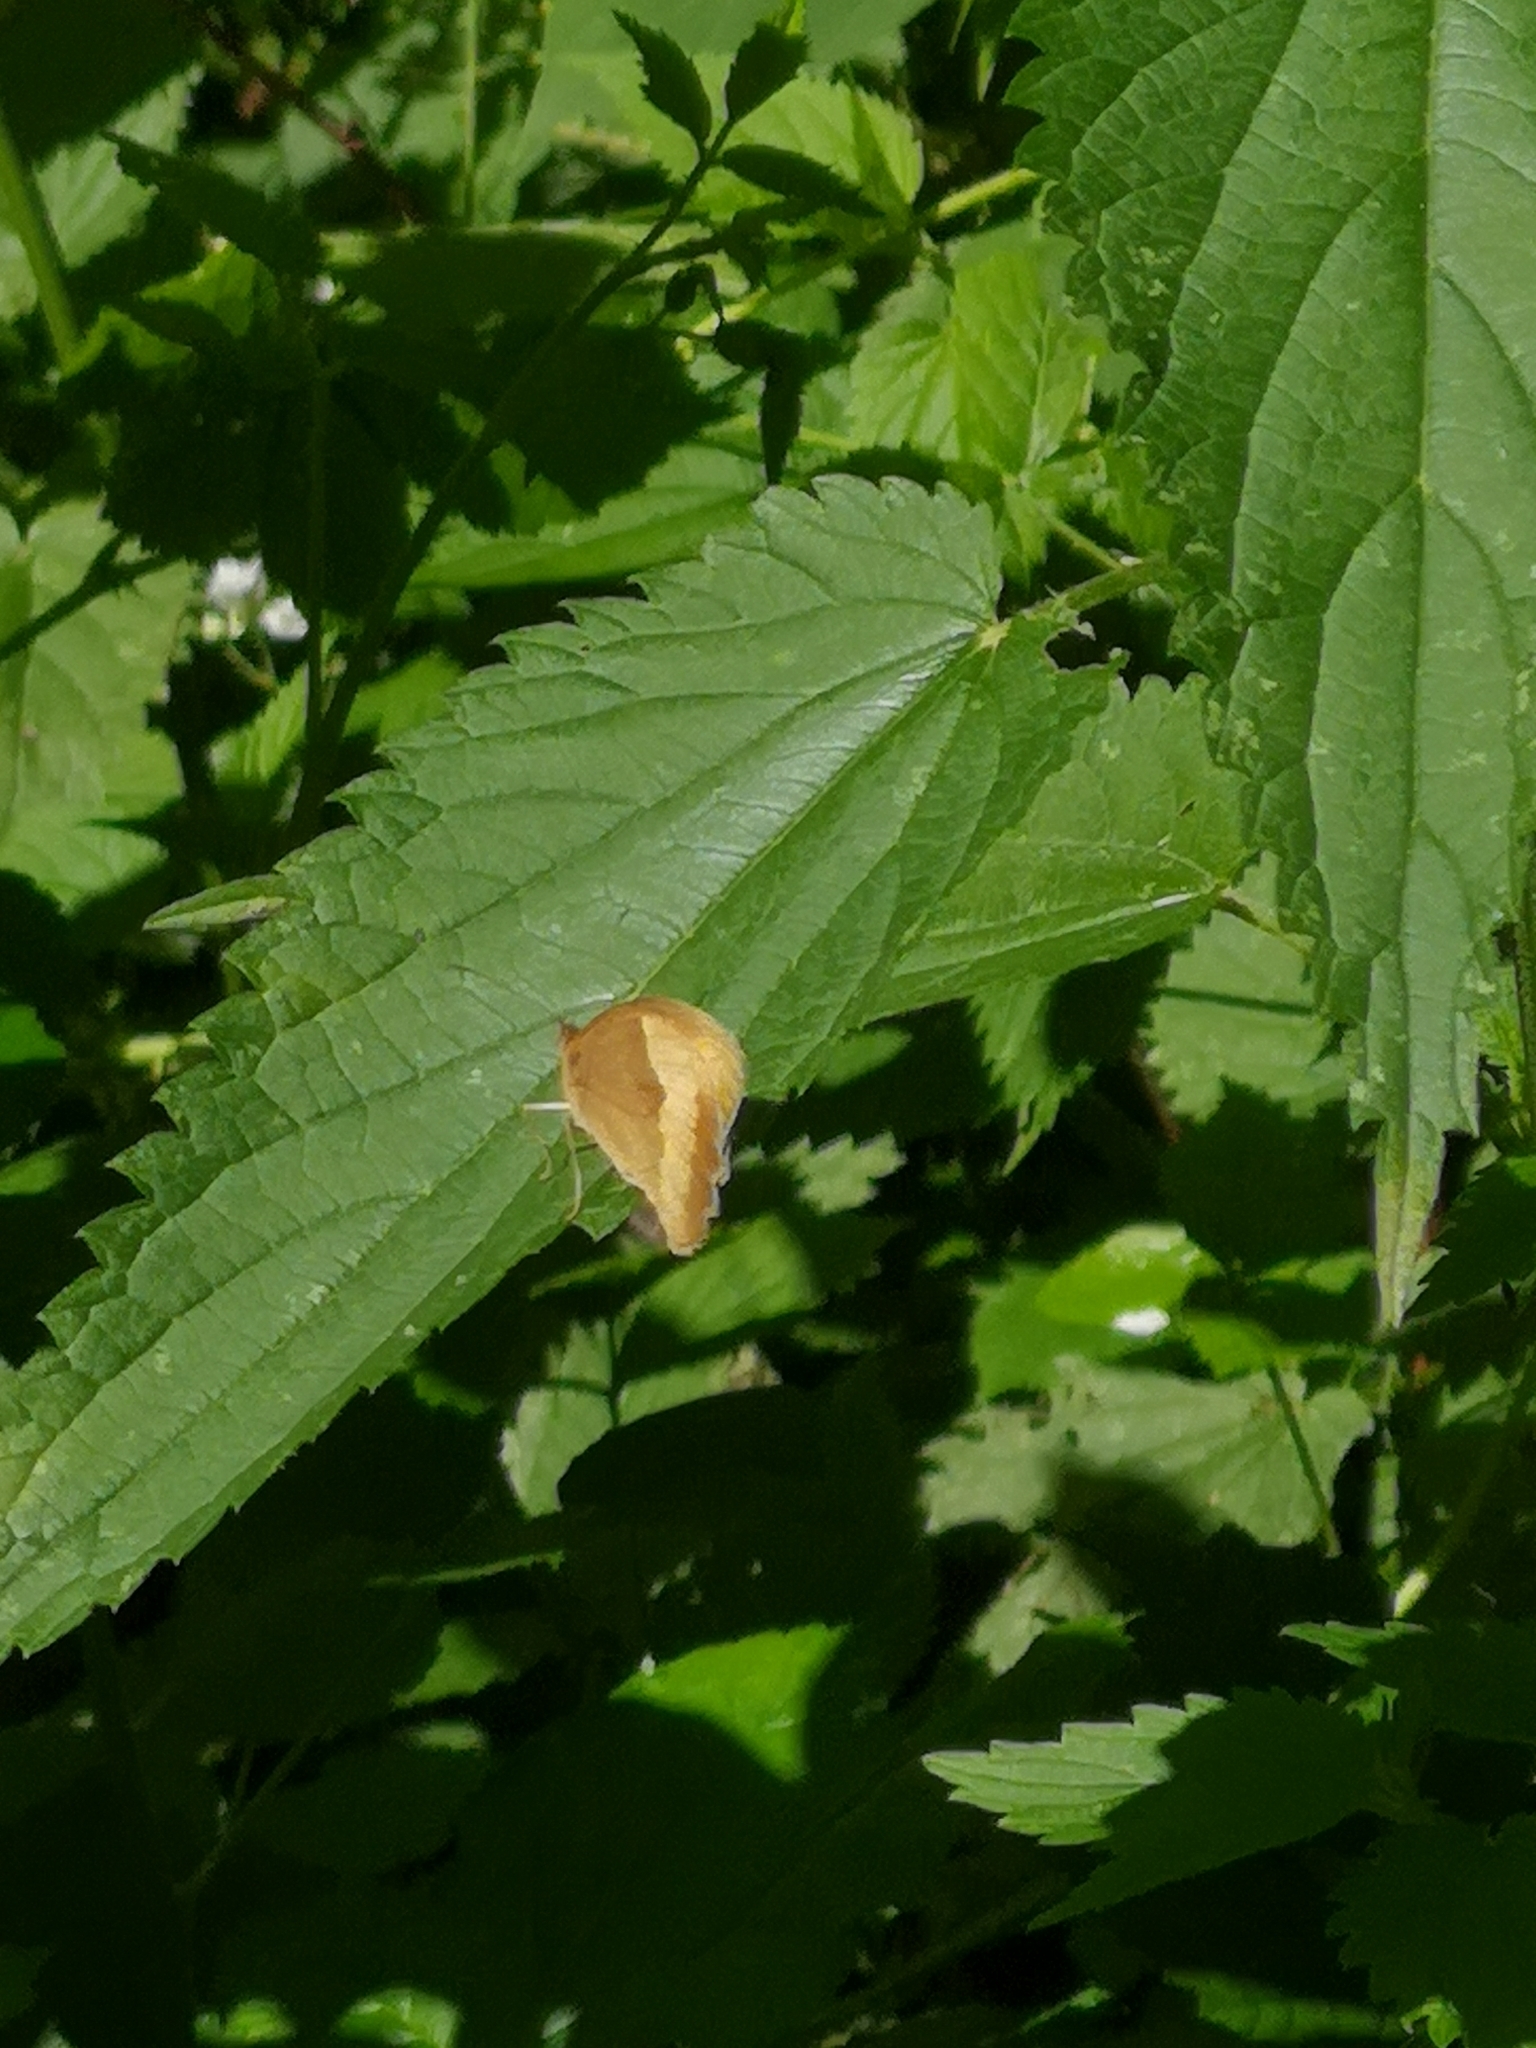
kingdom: Animalia
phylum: Arthropoda
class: Insecta
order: Lepidoptera
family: Nymphalidae
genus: Maniola
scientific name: Maniola jurtina
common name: Meadow brown
